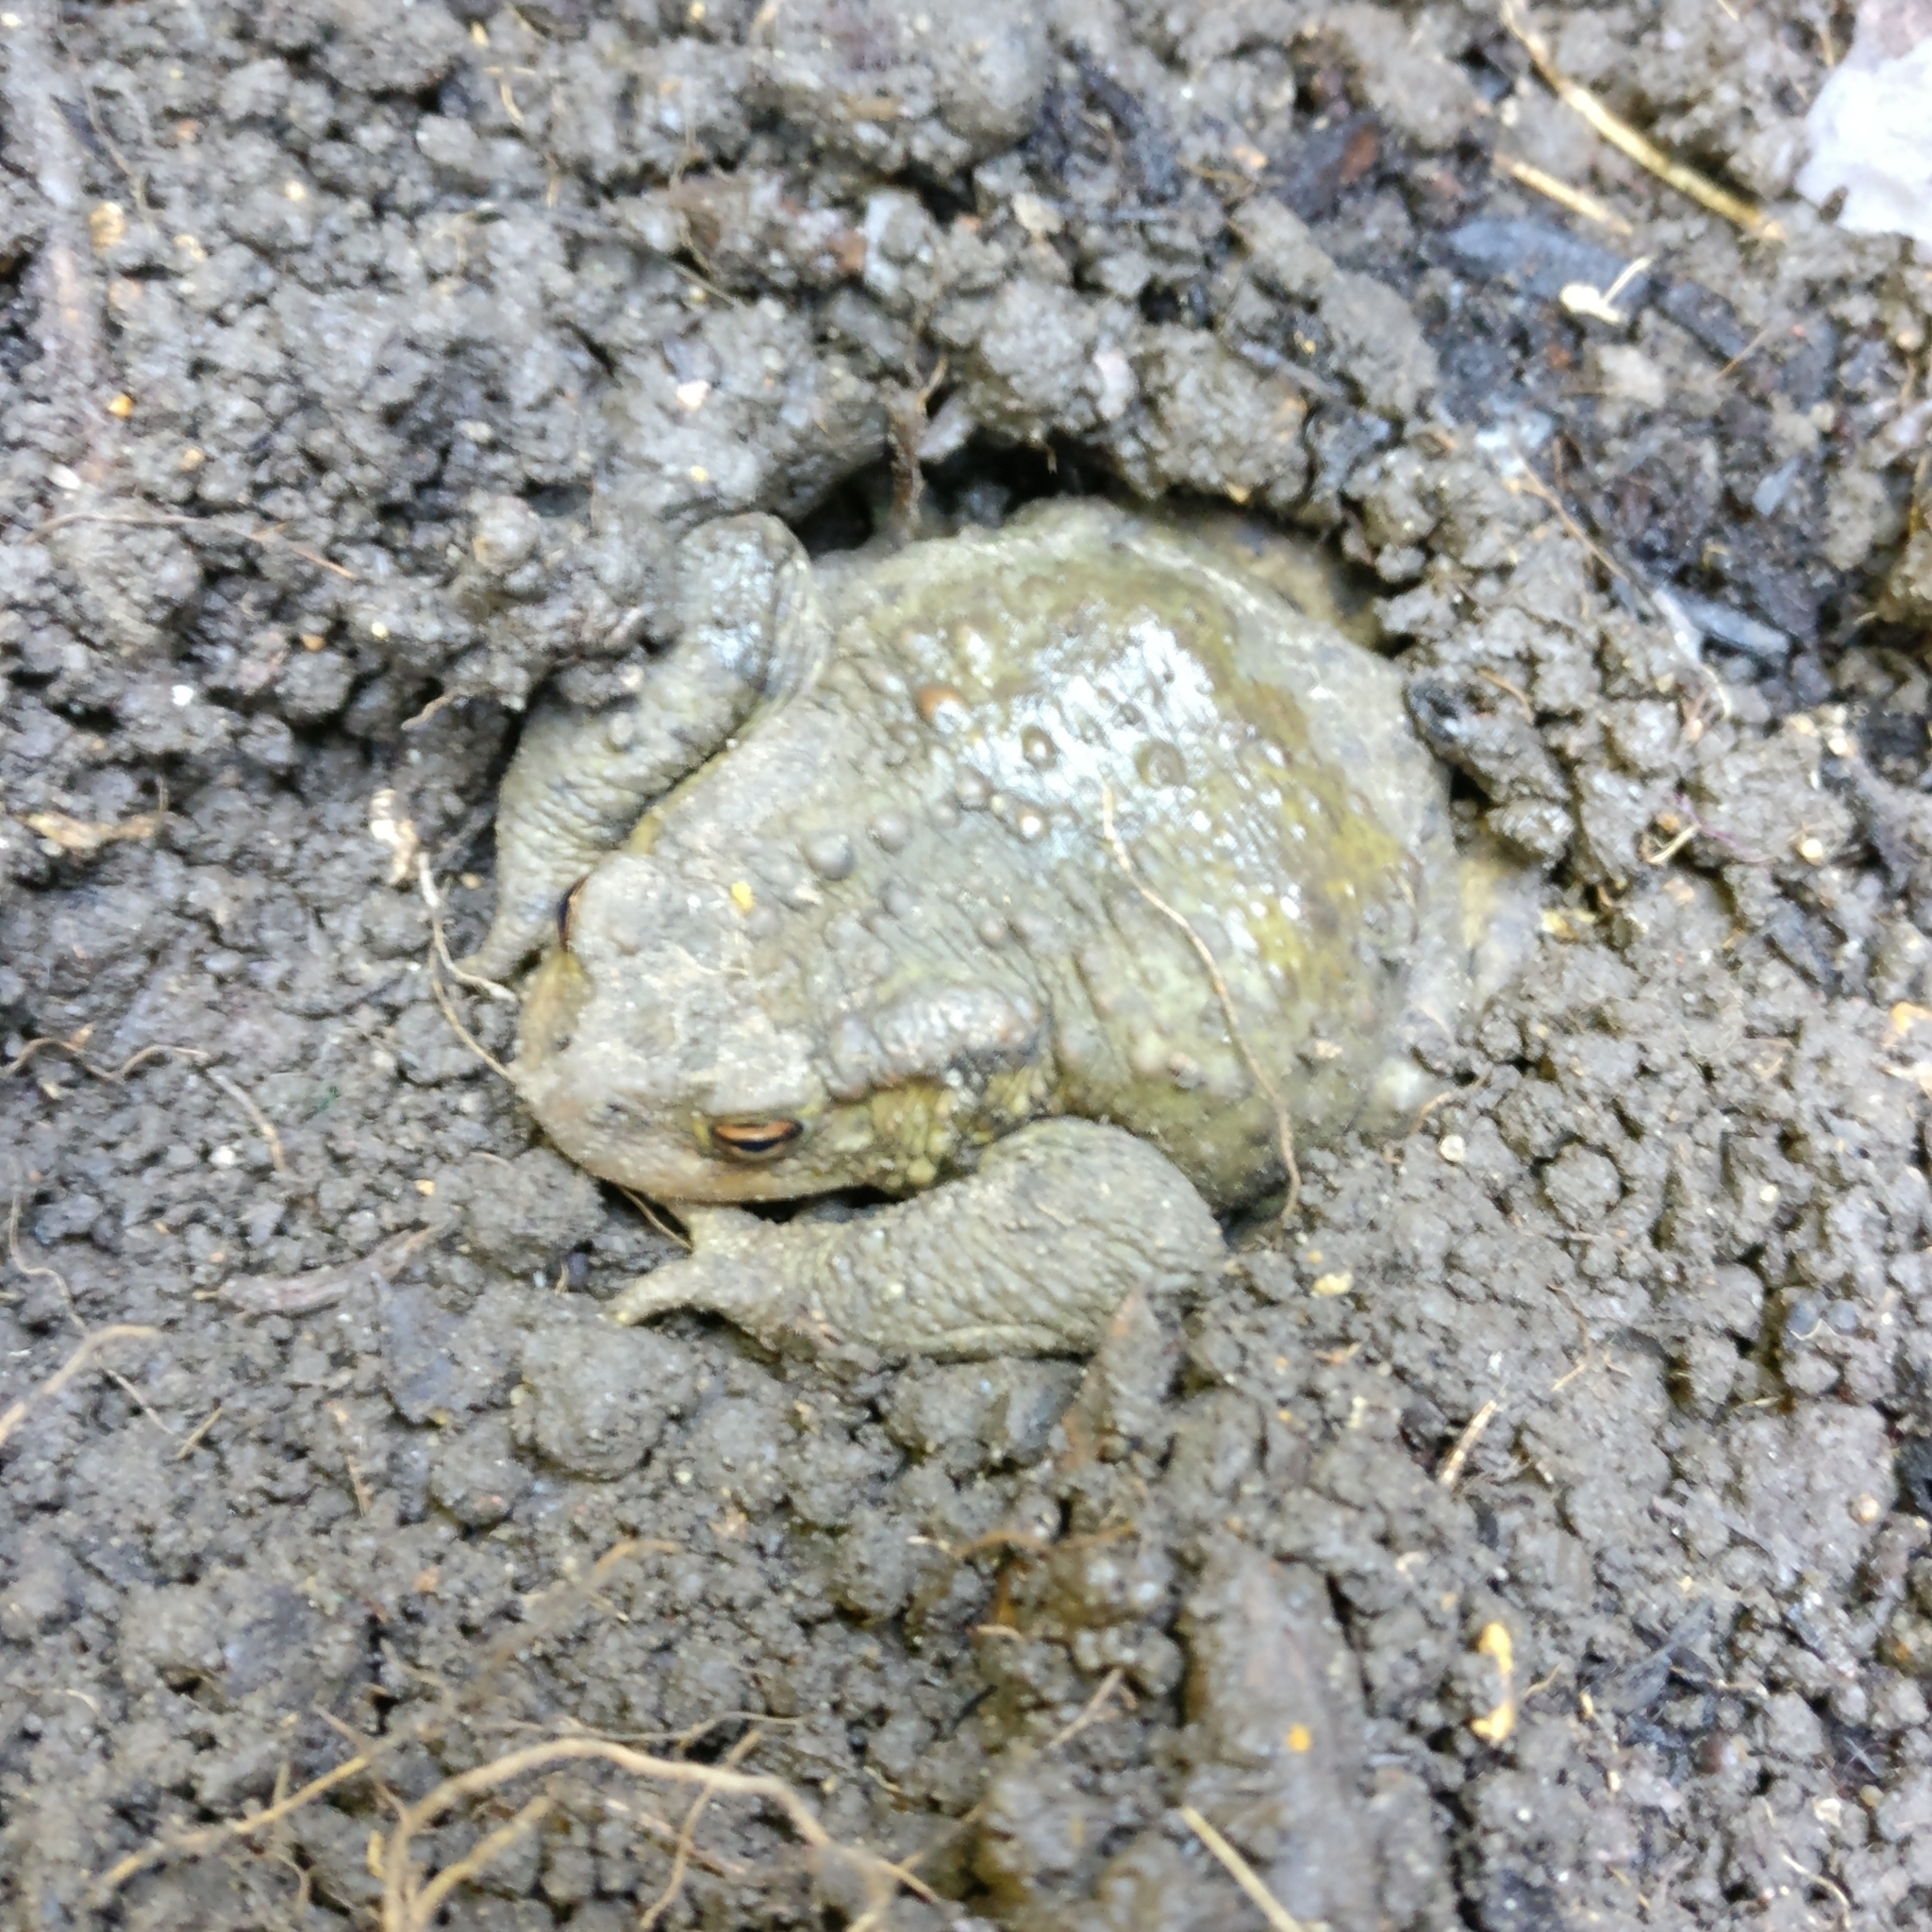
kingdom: Animalia
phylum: Chordata
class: Amphibia
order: Anura
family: Bufonidae
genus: Bufo
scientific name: Bufo bufo
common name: Common toad
